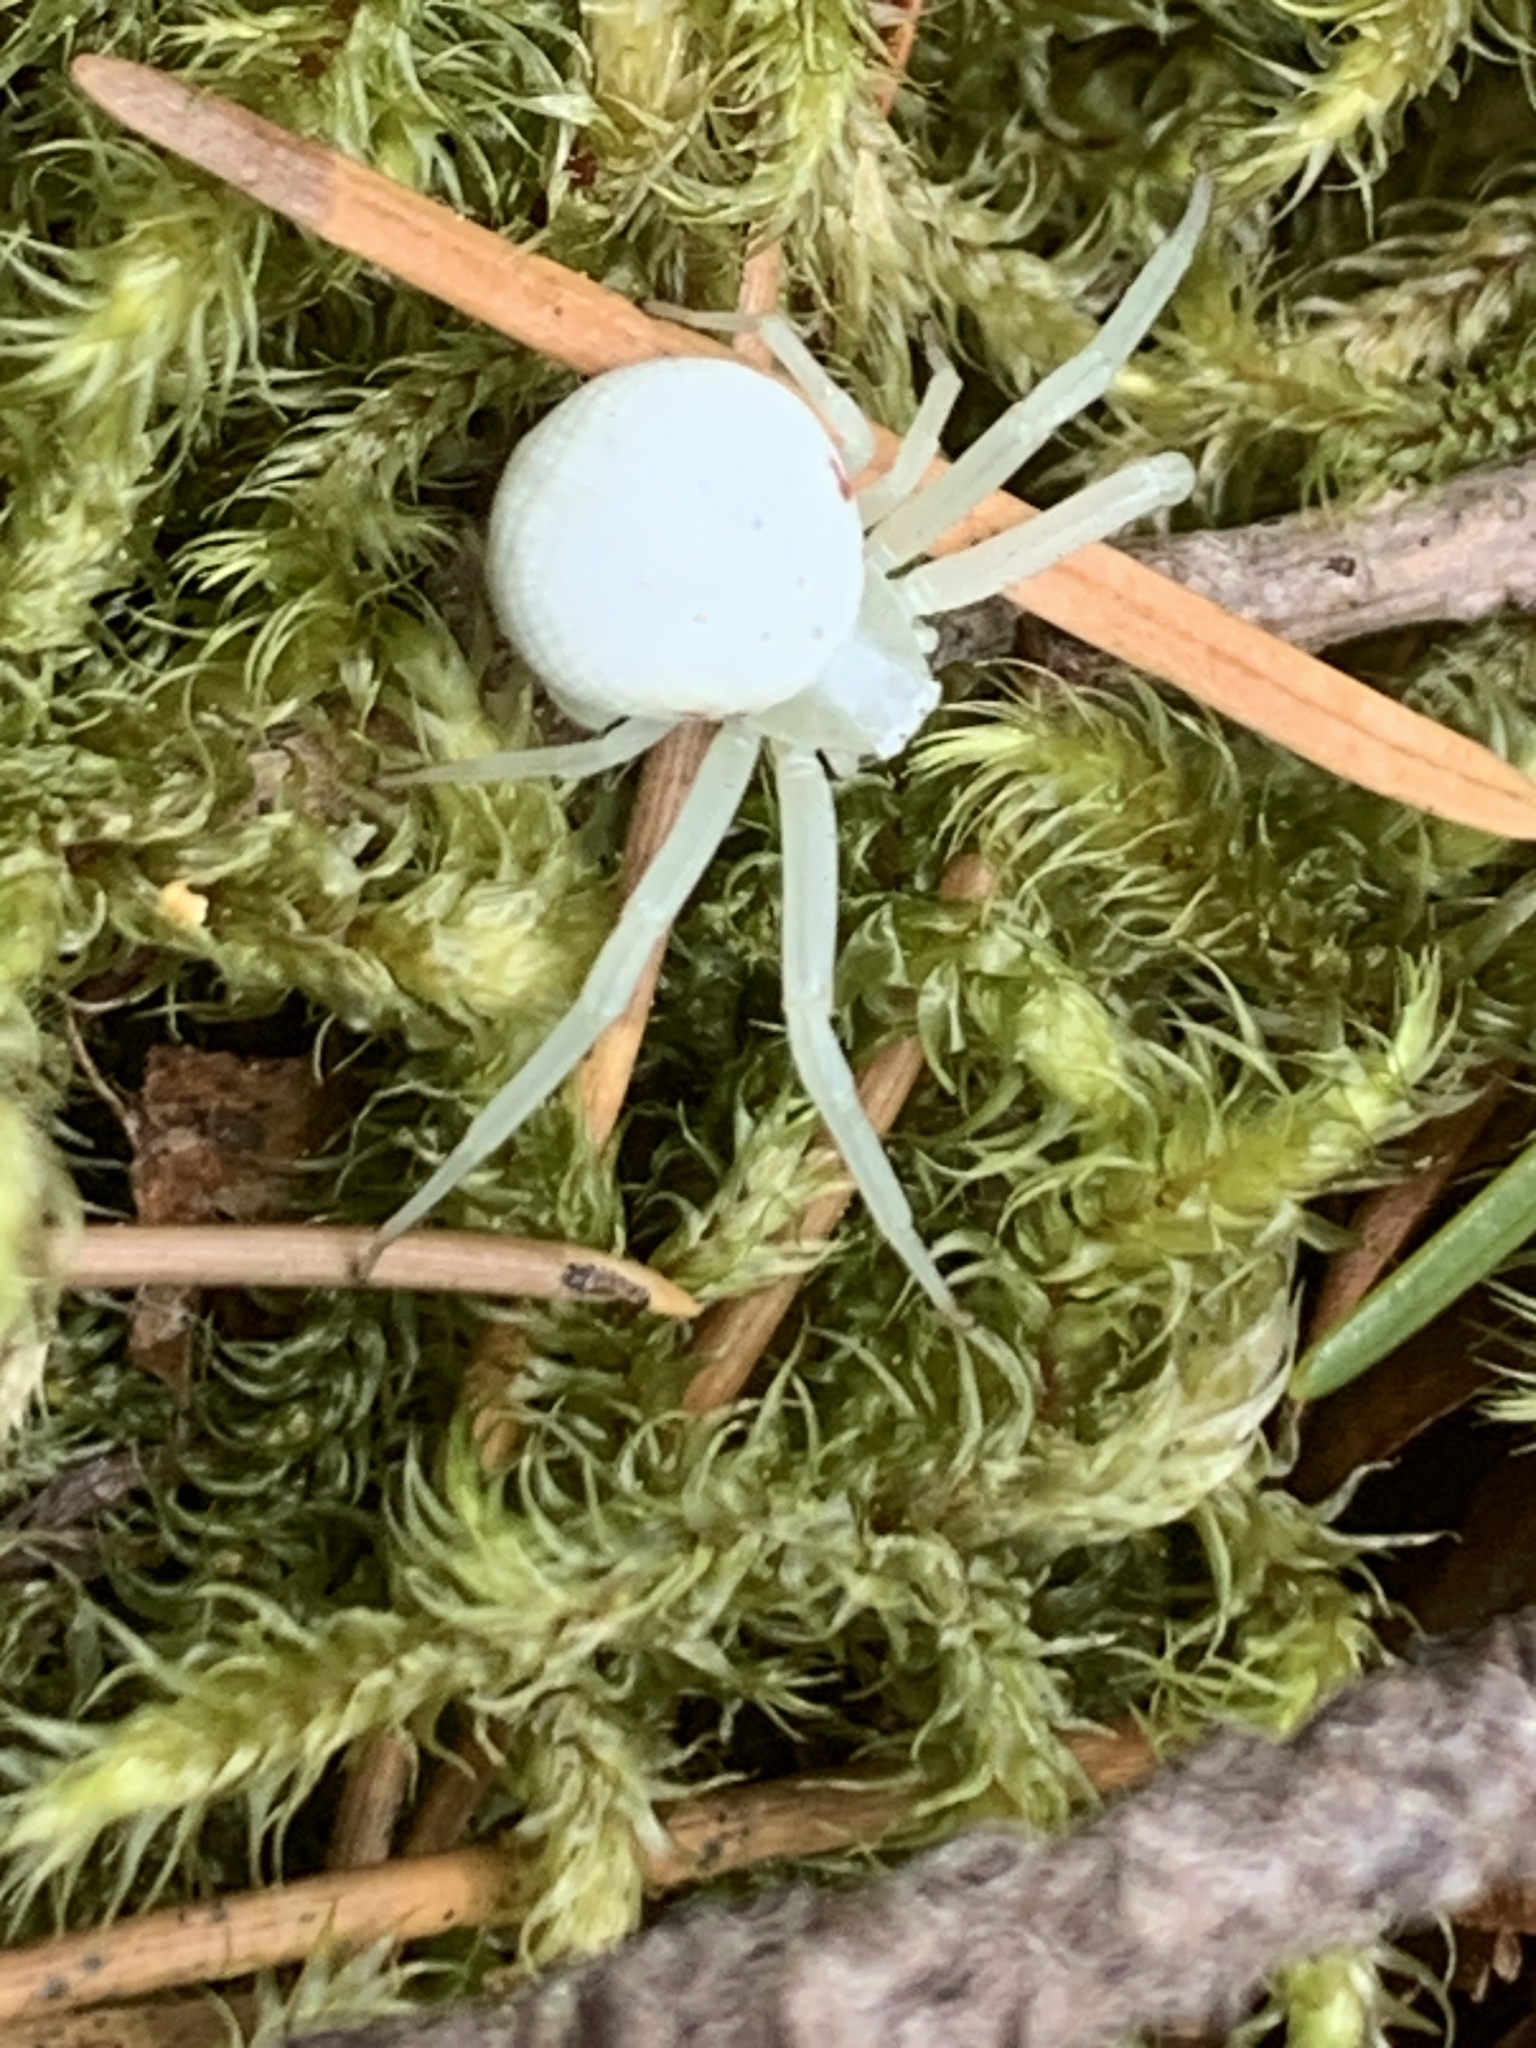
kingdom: Animalia
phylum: Arthropoda
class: Arachnida
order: Araneae
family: Thomisidae
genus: Misumena
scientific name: Misumena vatia
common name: Goldenrod crab spider
